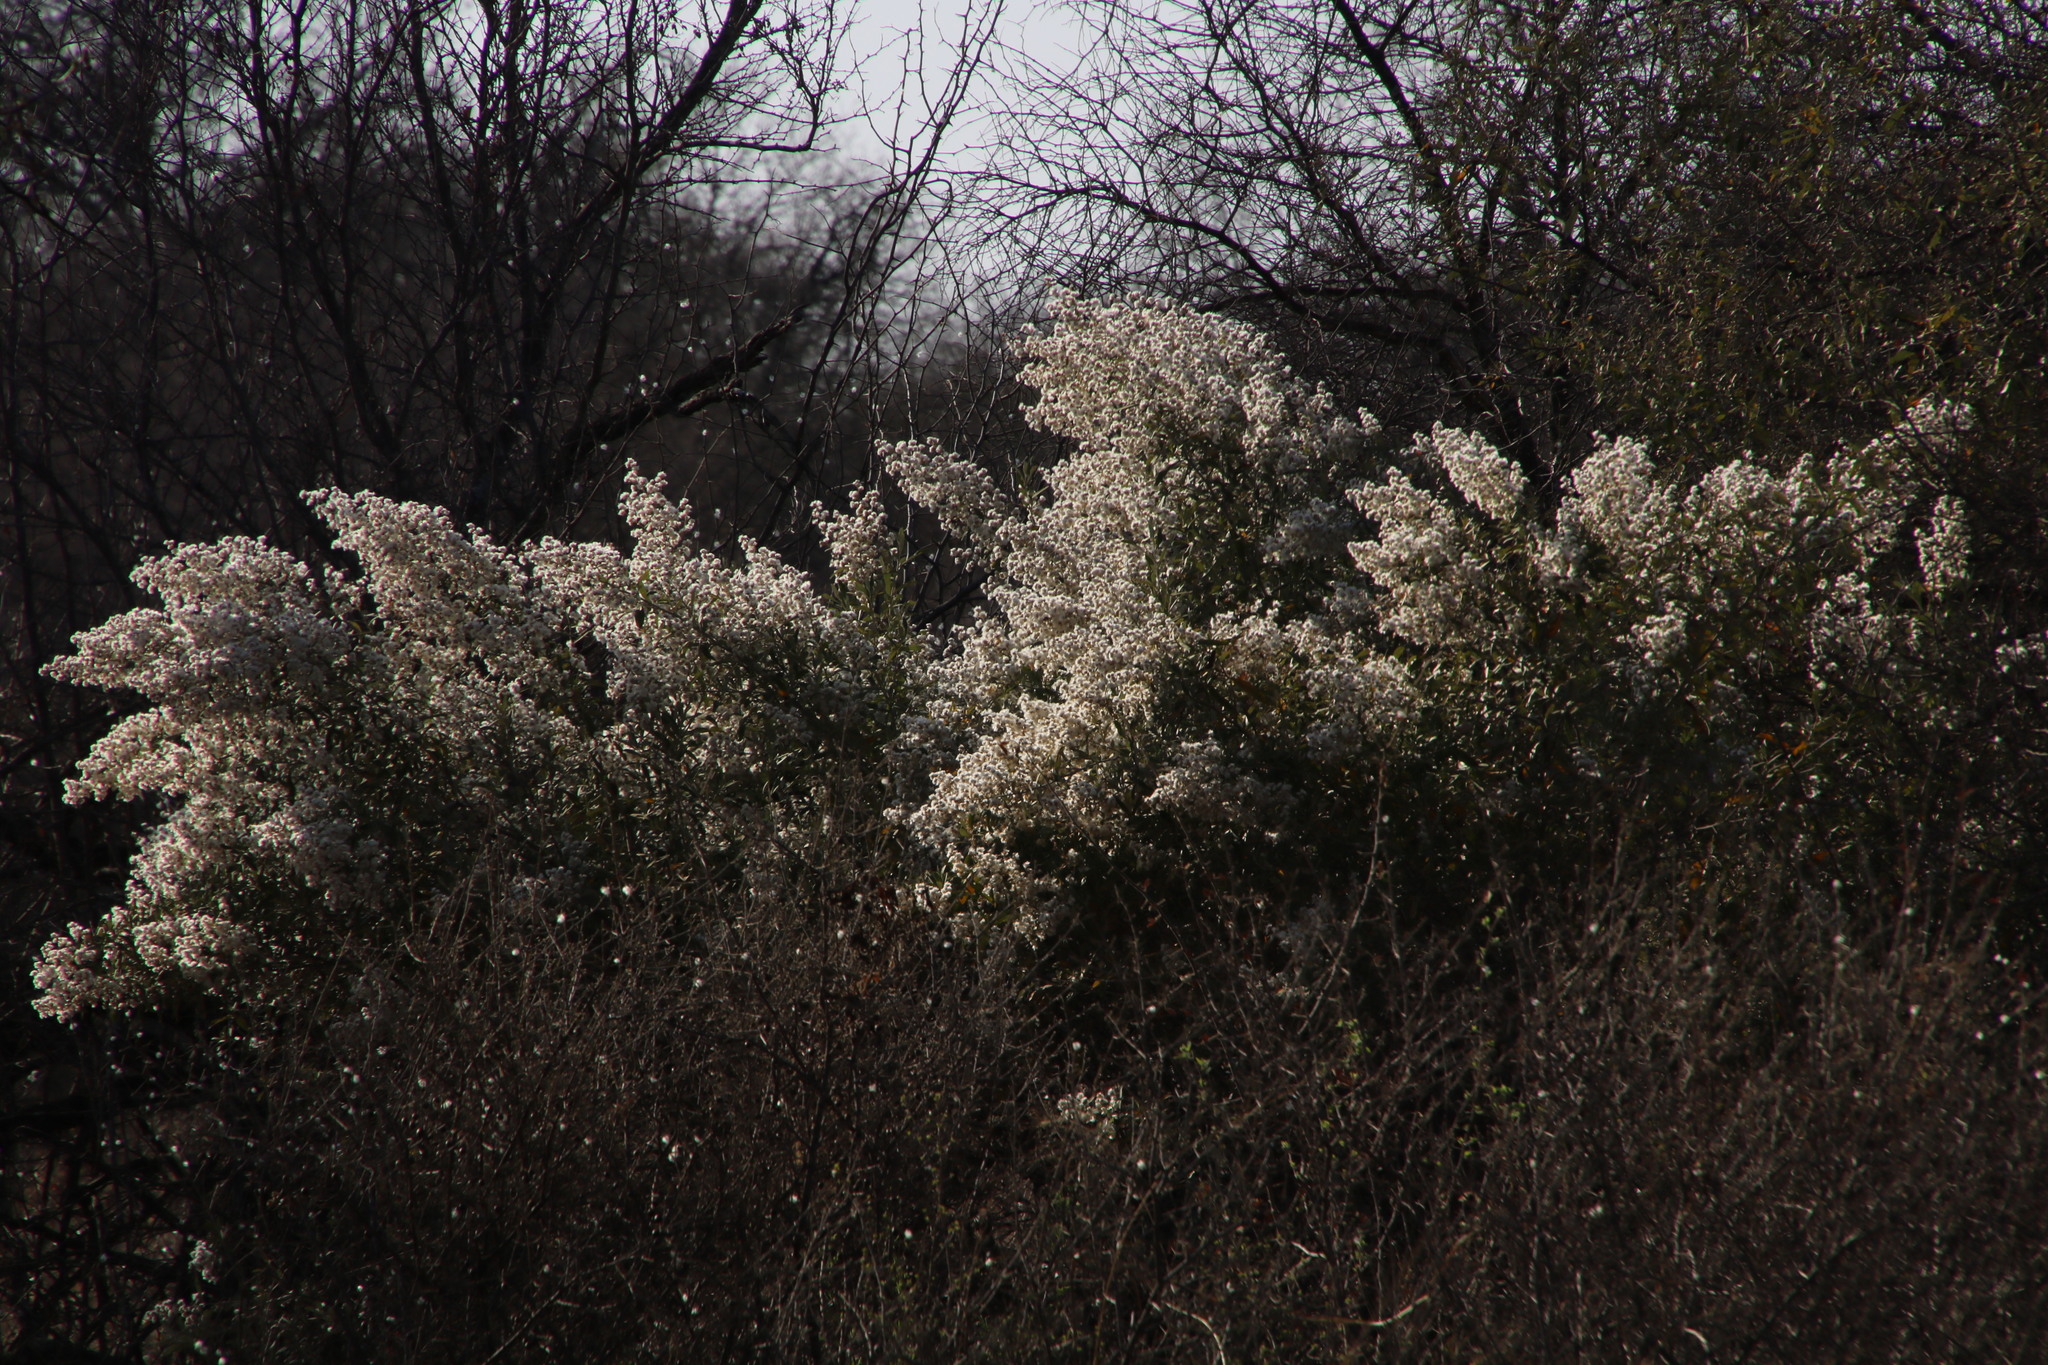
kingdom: Plantae
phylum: Tracheophyta
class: Magnoliopsida
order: Asterales
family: Asteraceae
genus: Tarchonanthus
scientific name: Tarchonanthus camphoratus
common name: Camphorwood
